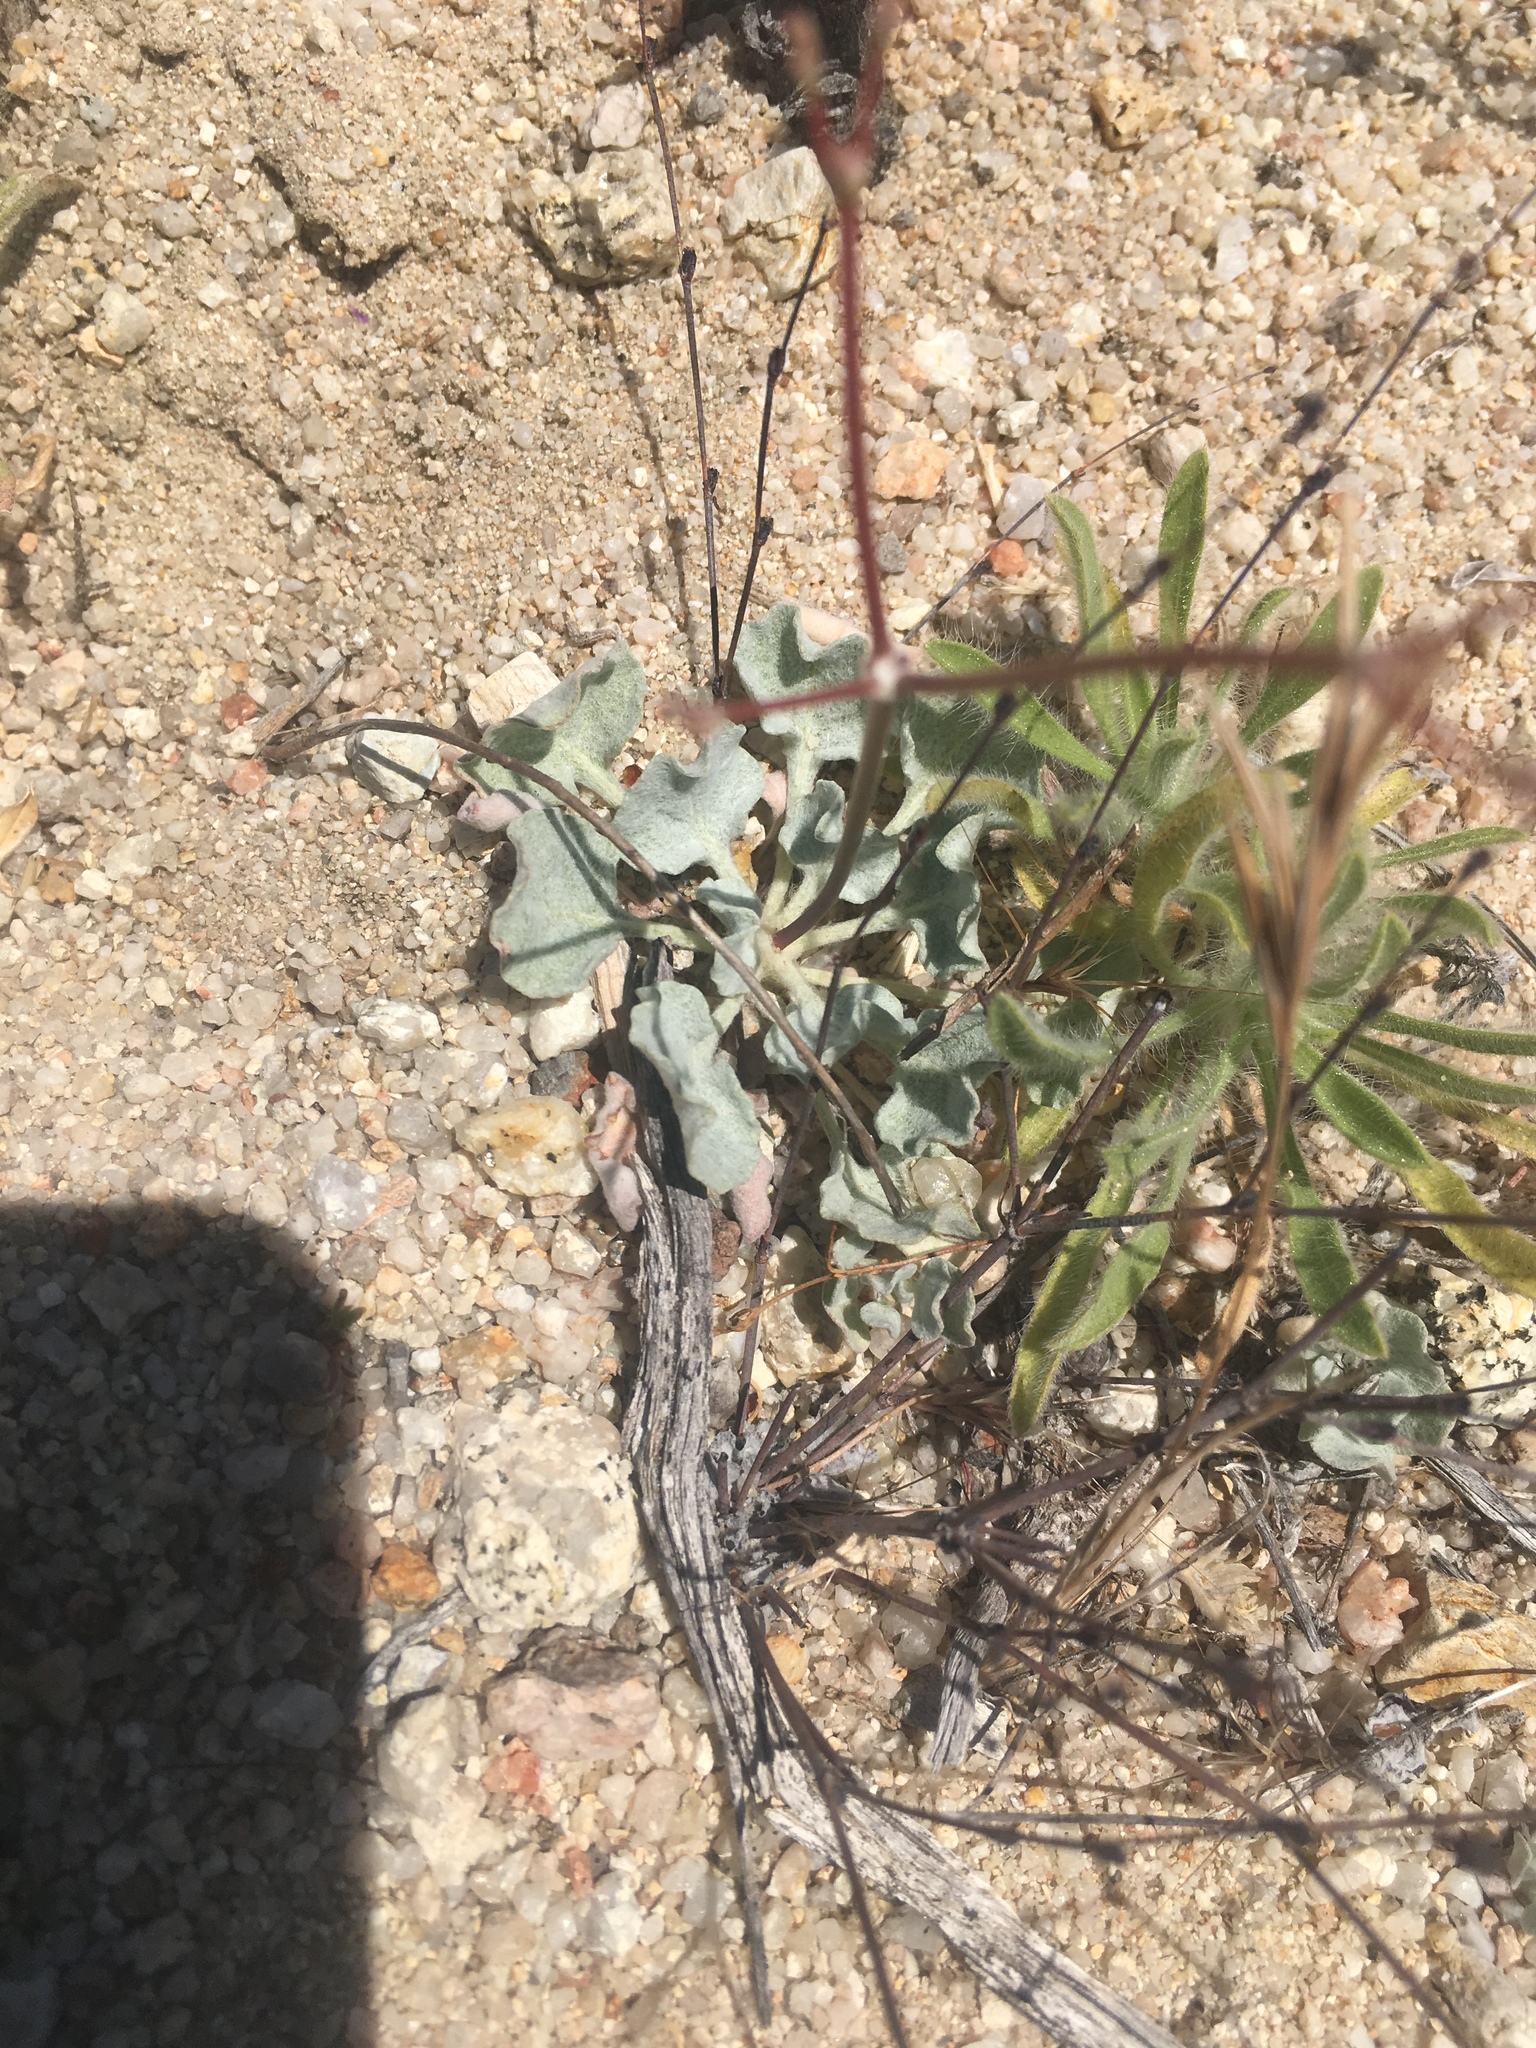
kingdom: Plantae
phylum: Tracheophyta
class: Magnoliopsida
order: Caryophyllales
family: Polygonaceae
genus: Eriogonum
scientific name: Eriogonum elegans
